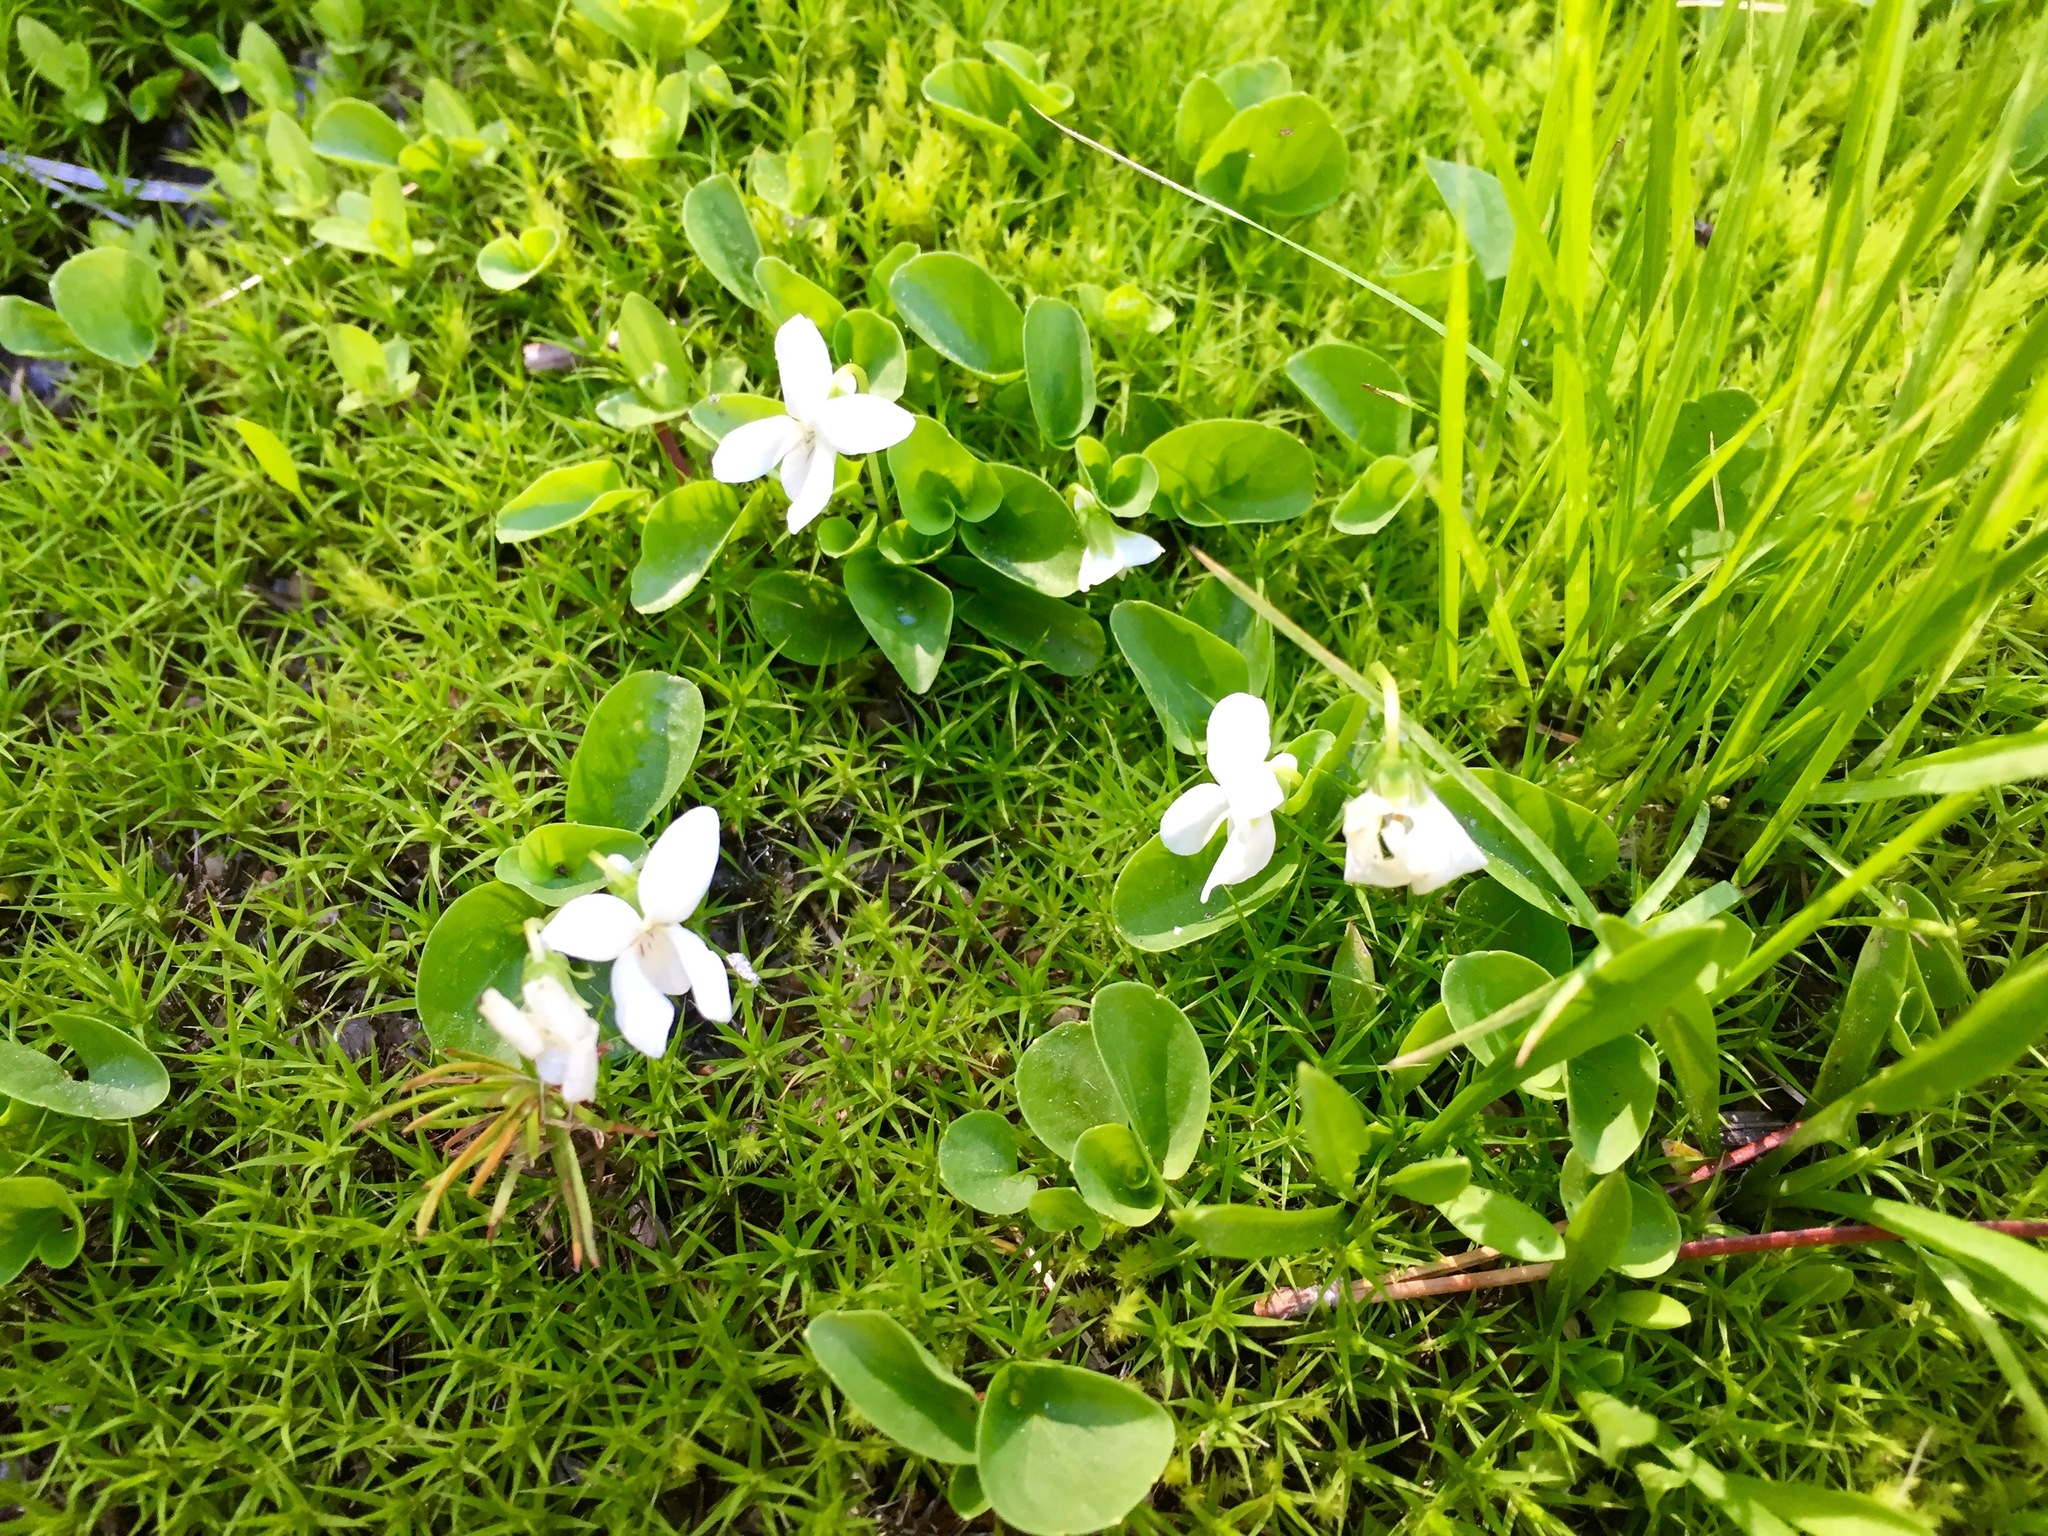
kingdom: Plantae
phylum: Tracheophyta
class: Magnoliopsida
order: Malpighiales
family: Violaceae
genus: Viola
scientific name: Viola macloskeyi
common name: Macloskey's violet
